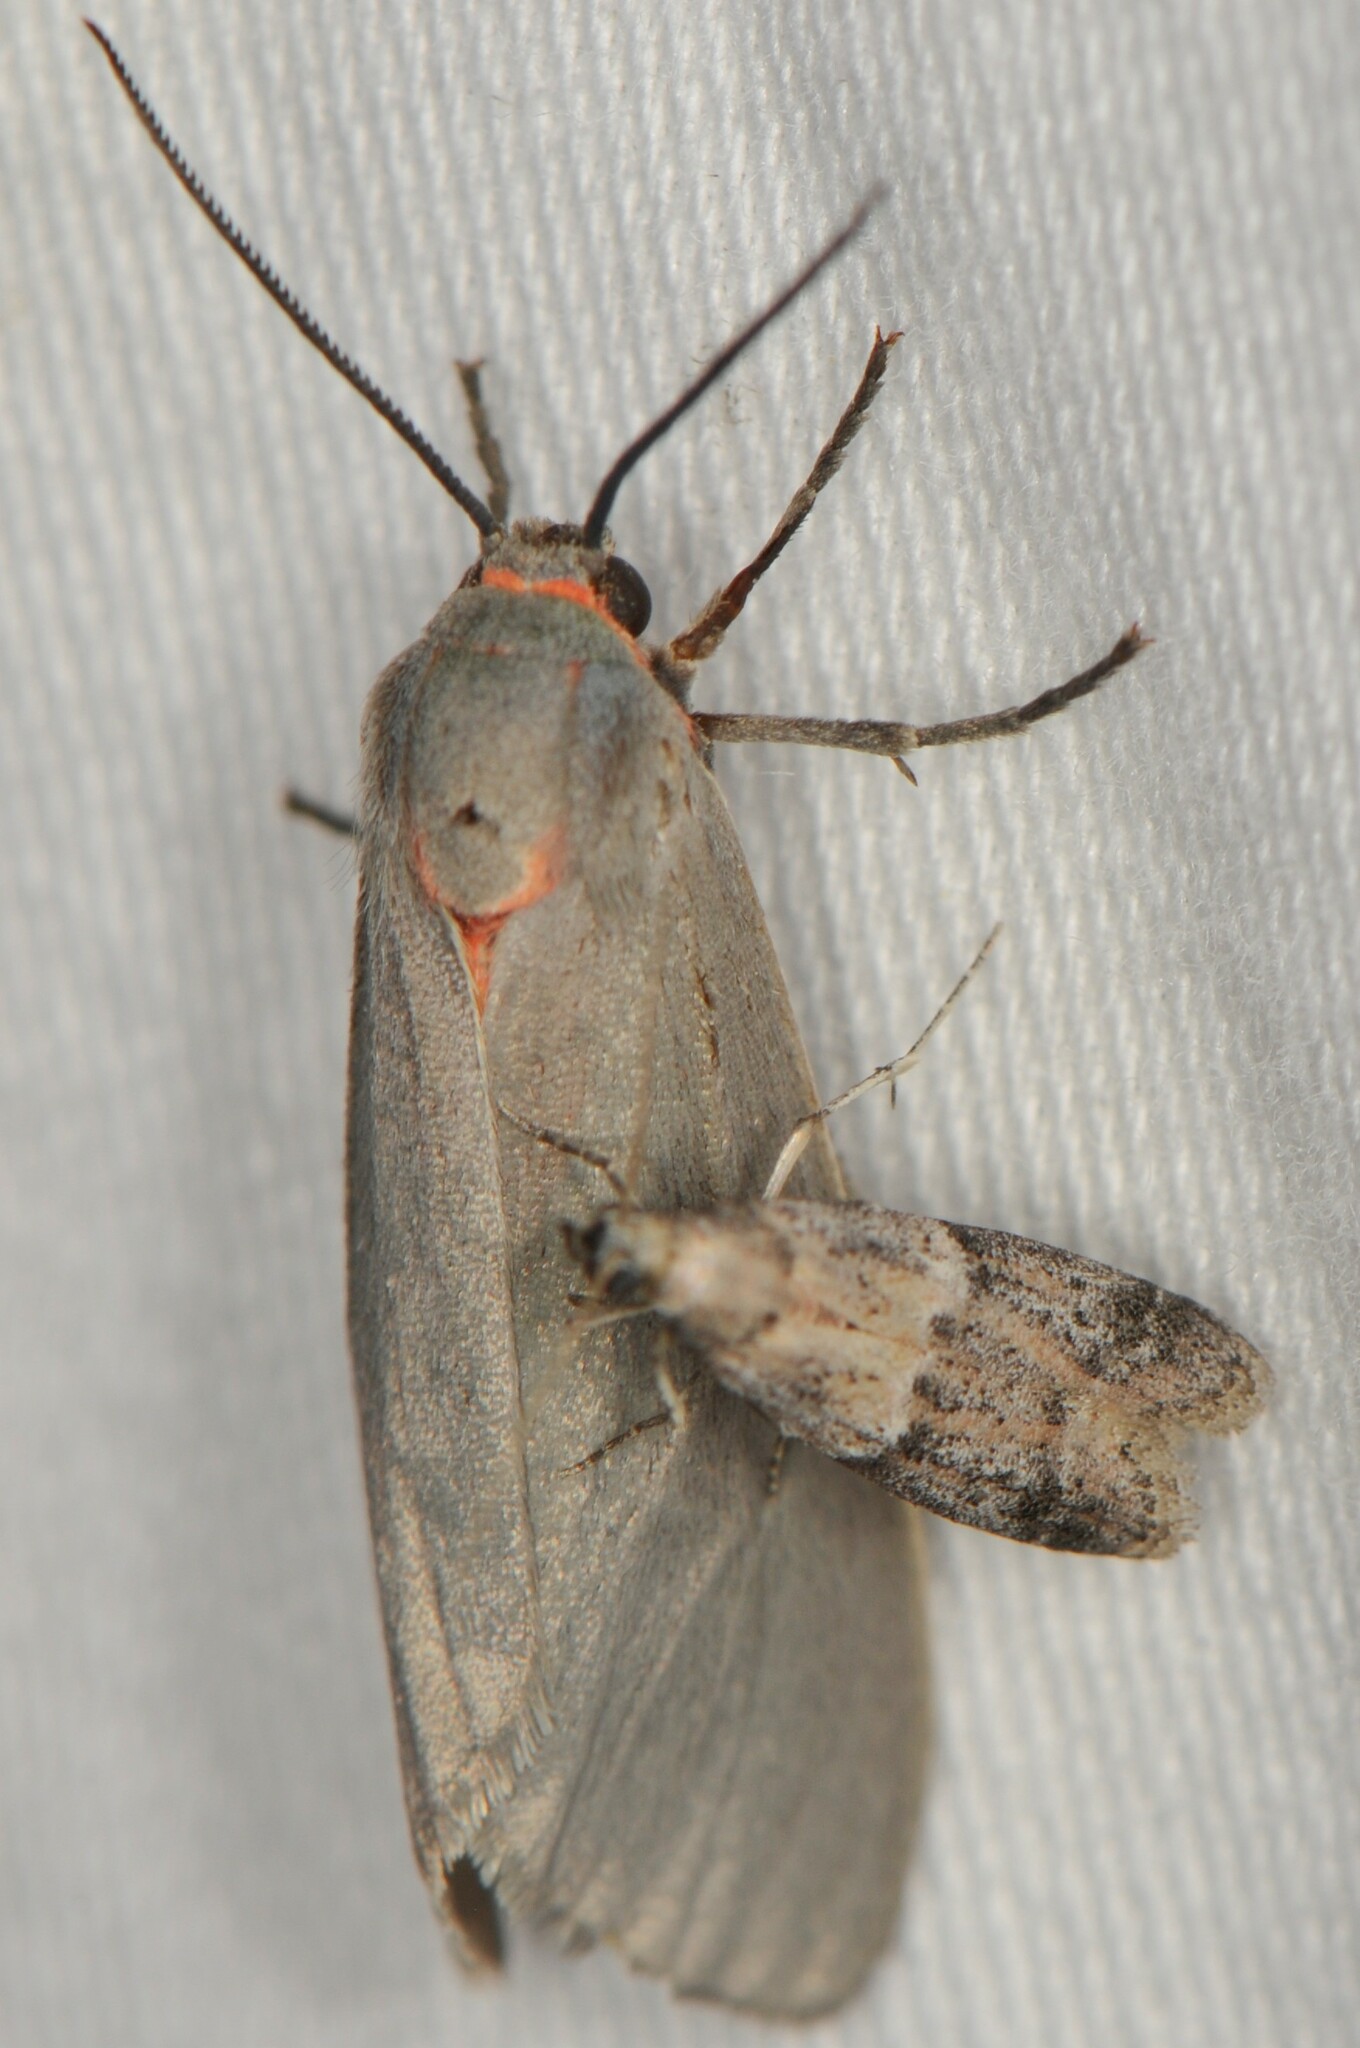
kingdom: Animalia
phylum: Arthropoda
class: Insecta
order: Lepidoptera
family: Erebidae
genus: Pygarctia
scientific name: Pygarctia murina
